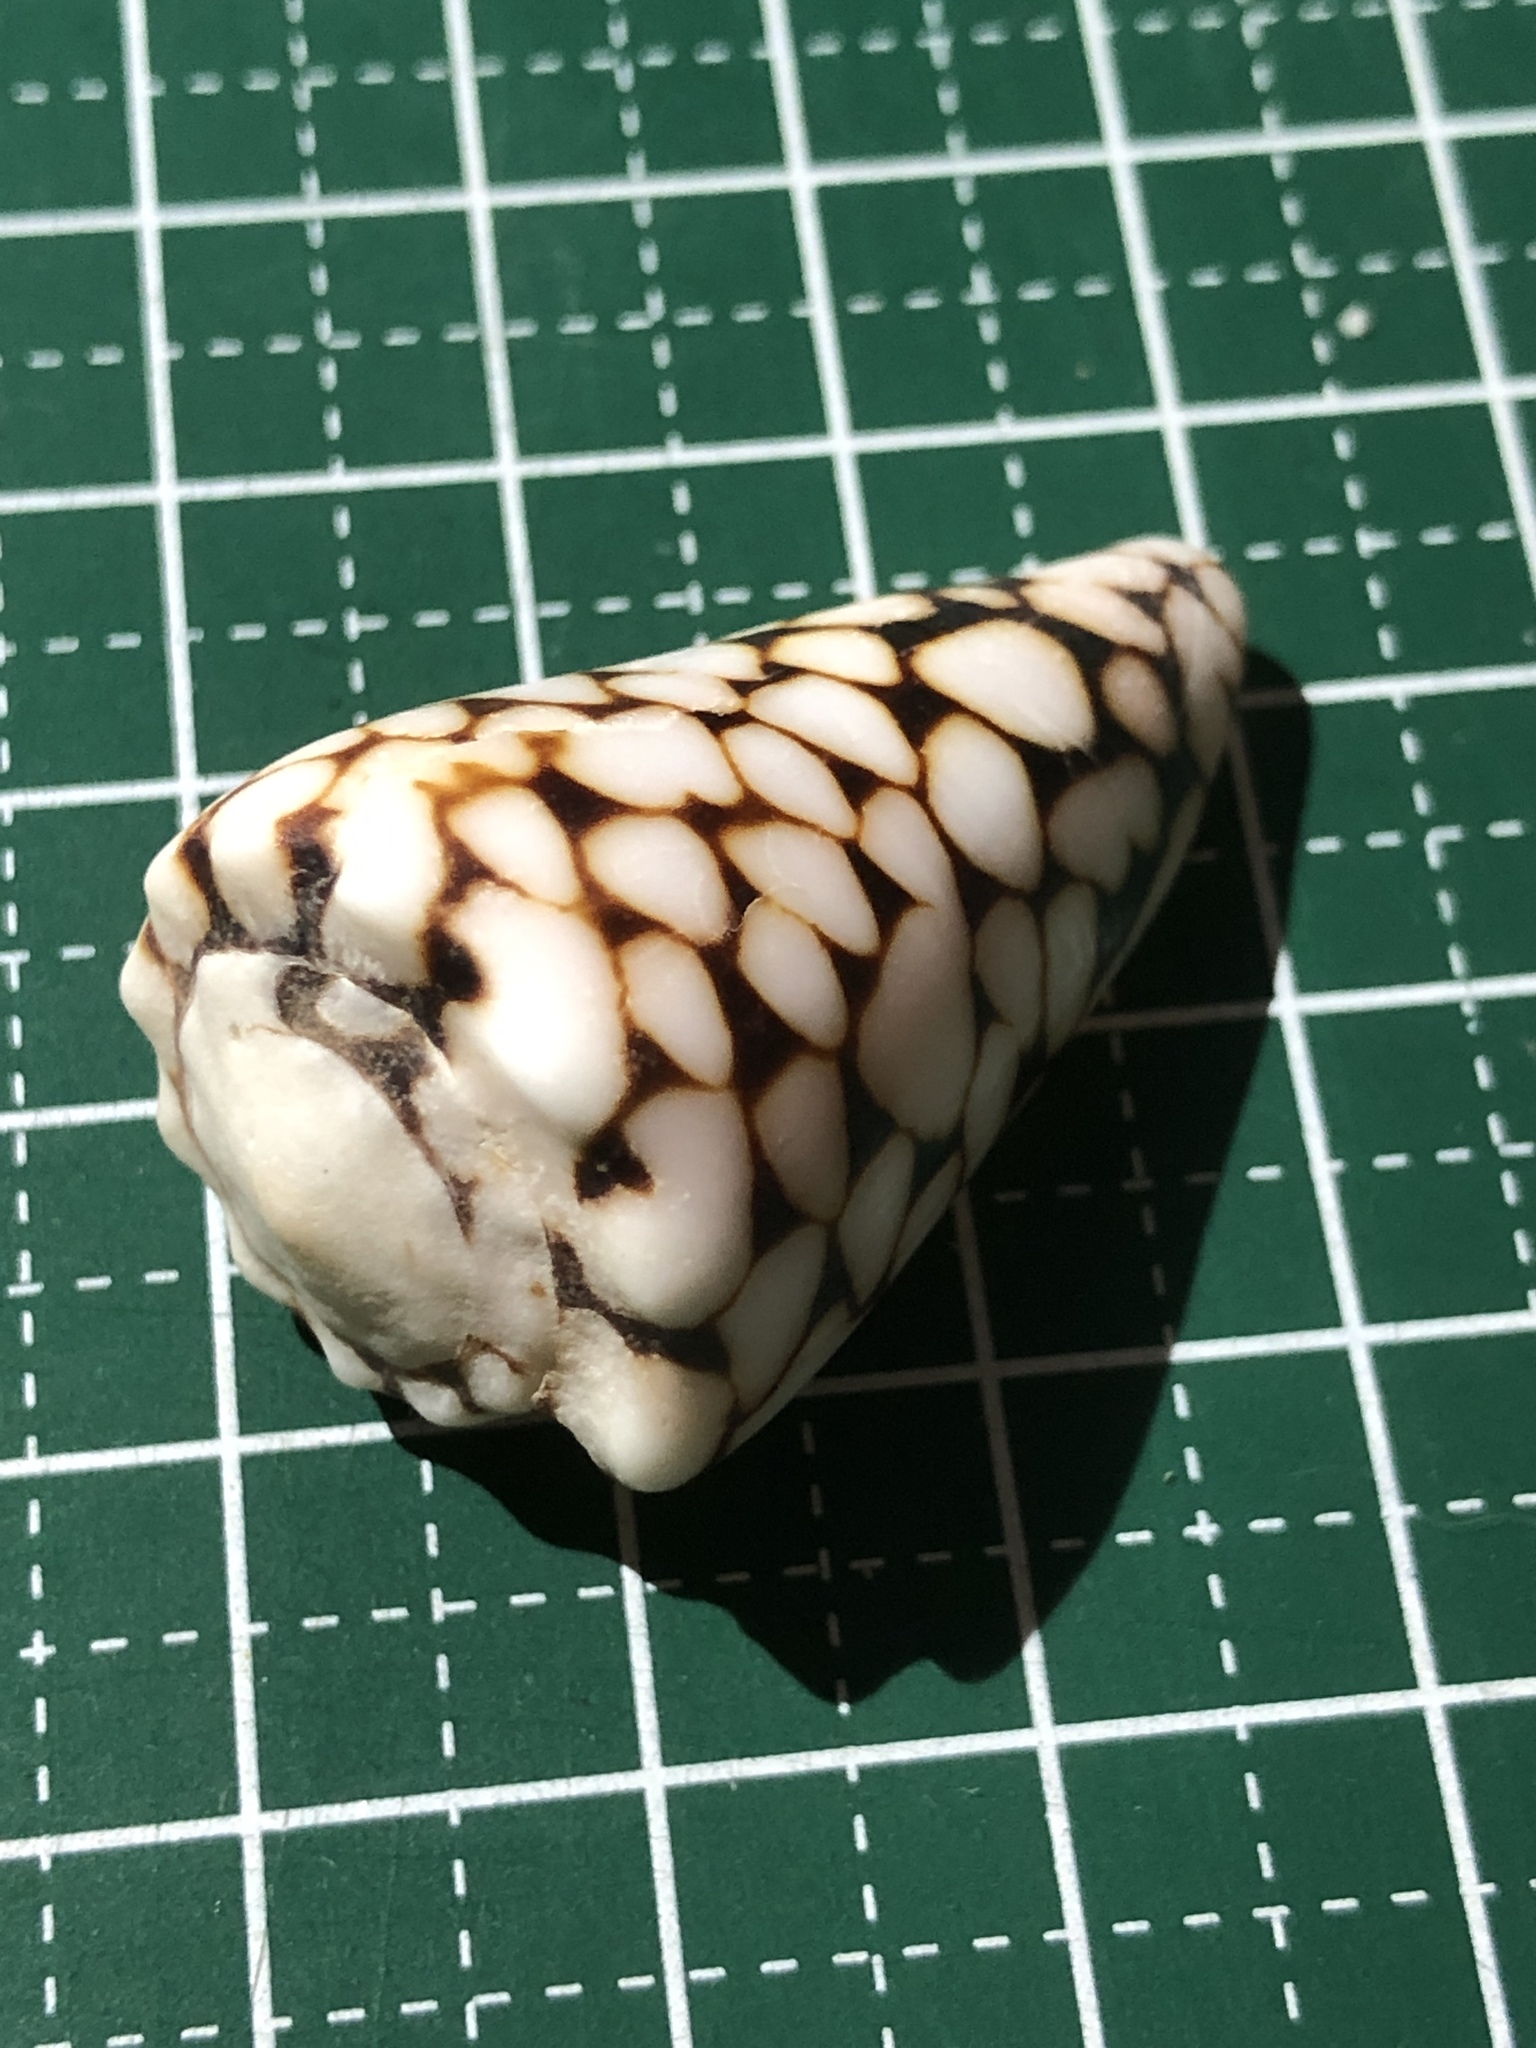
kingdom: Animalia
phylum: Mollusca
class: Gastropoda
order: Neogastropoda
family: Conidae
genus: Conus
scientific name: Conus marmoreus
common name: Marbled cone
